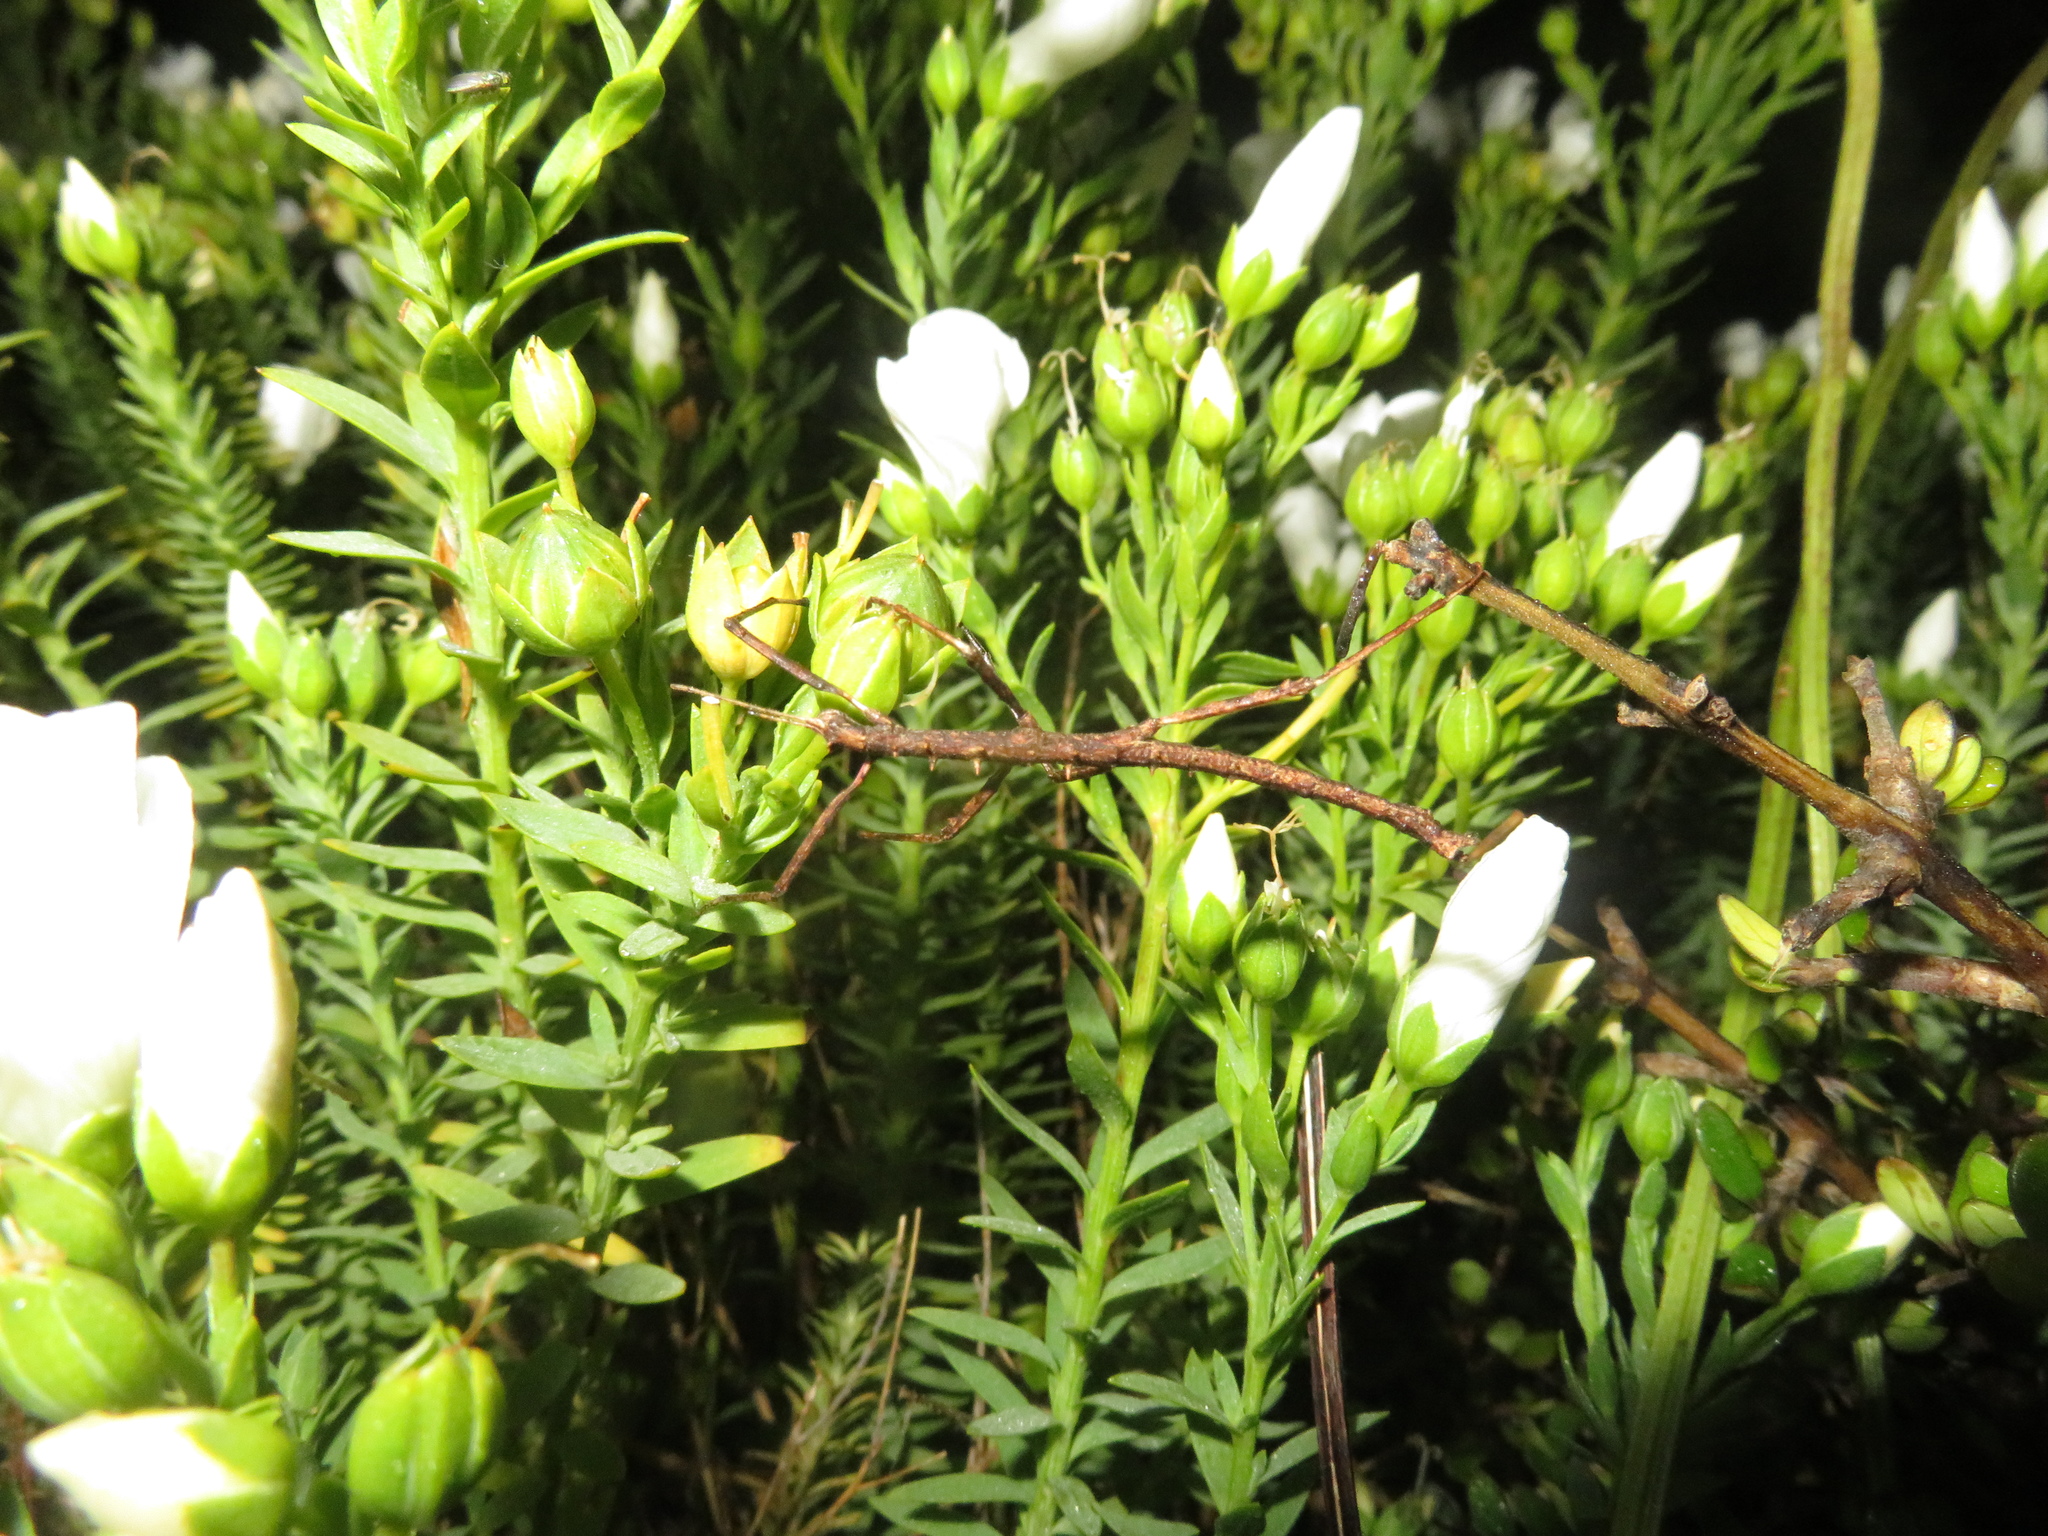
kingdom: Animalia
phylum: Arthropoda
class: Insecta
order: Phasmida
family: Phasmatidae
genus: Micrarchus
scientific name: Micrarchus hystriculeus
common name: The lesser spiny stick insect
